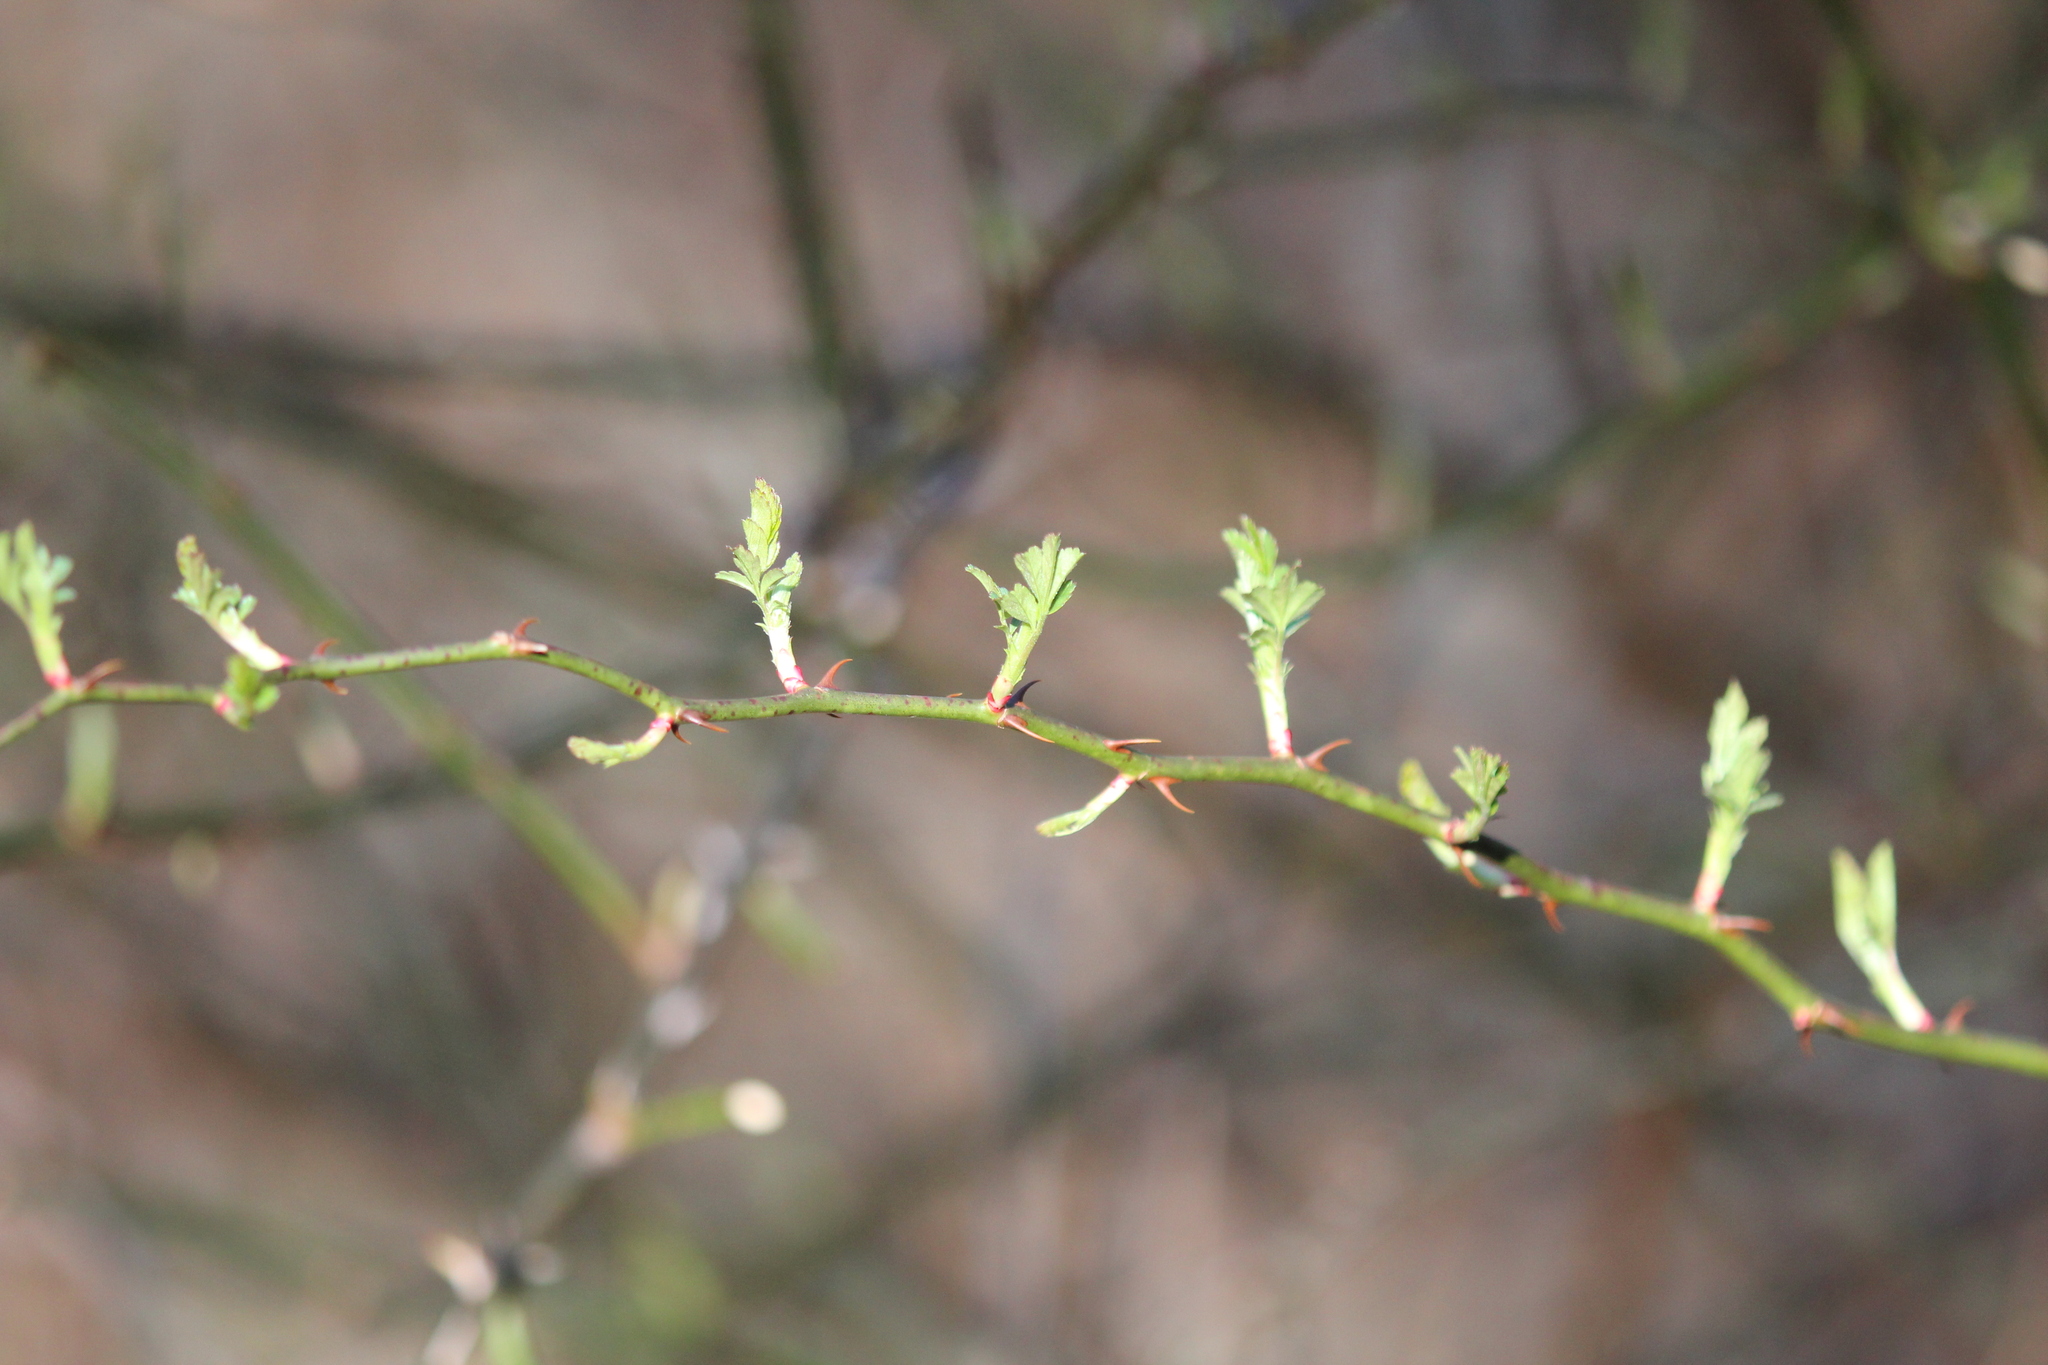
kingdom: Plantae
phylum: Tracheophyta
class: Magnoliopsida
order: Rosales
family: Rosaceae
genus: Rosa
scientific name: Rosa multiflora
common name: Multiflora rose
